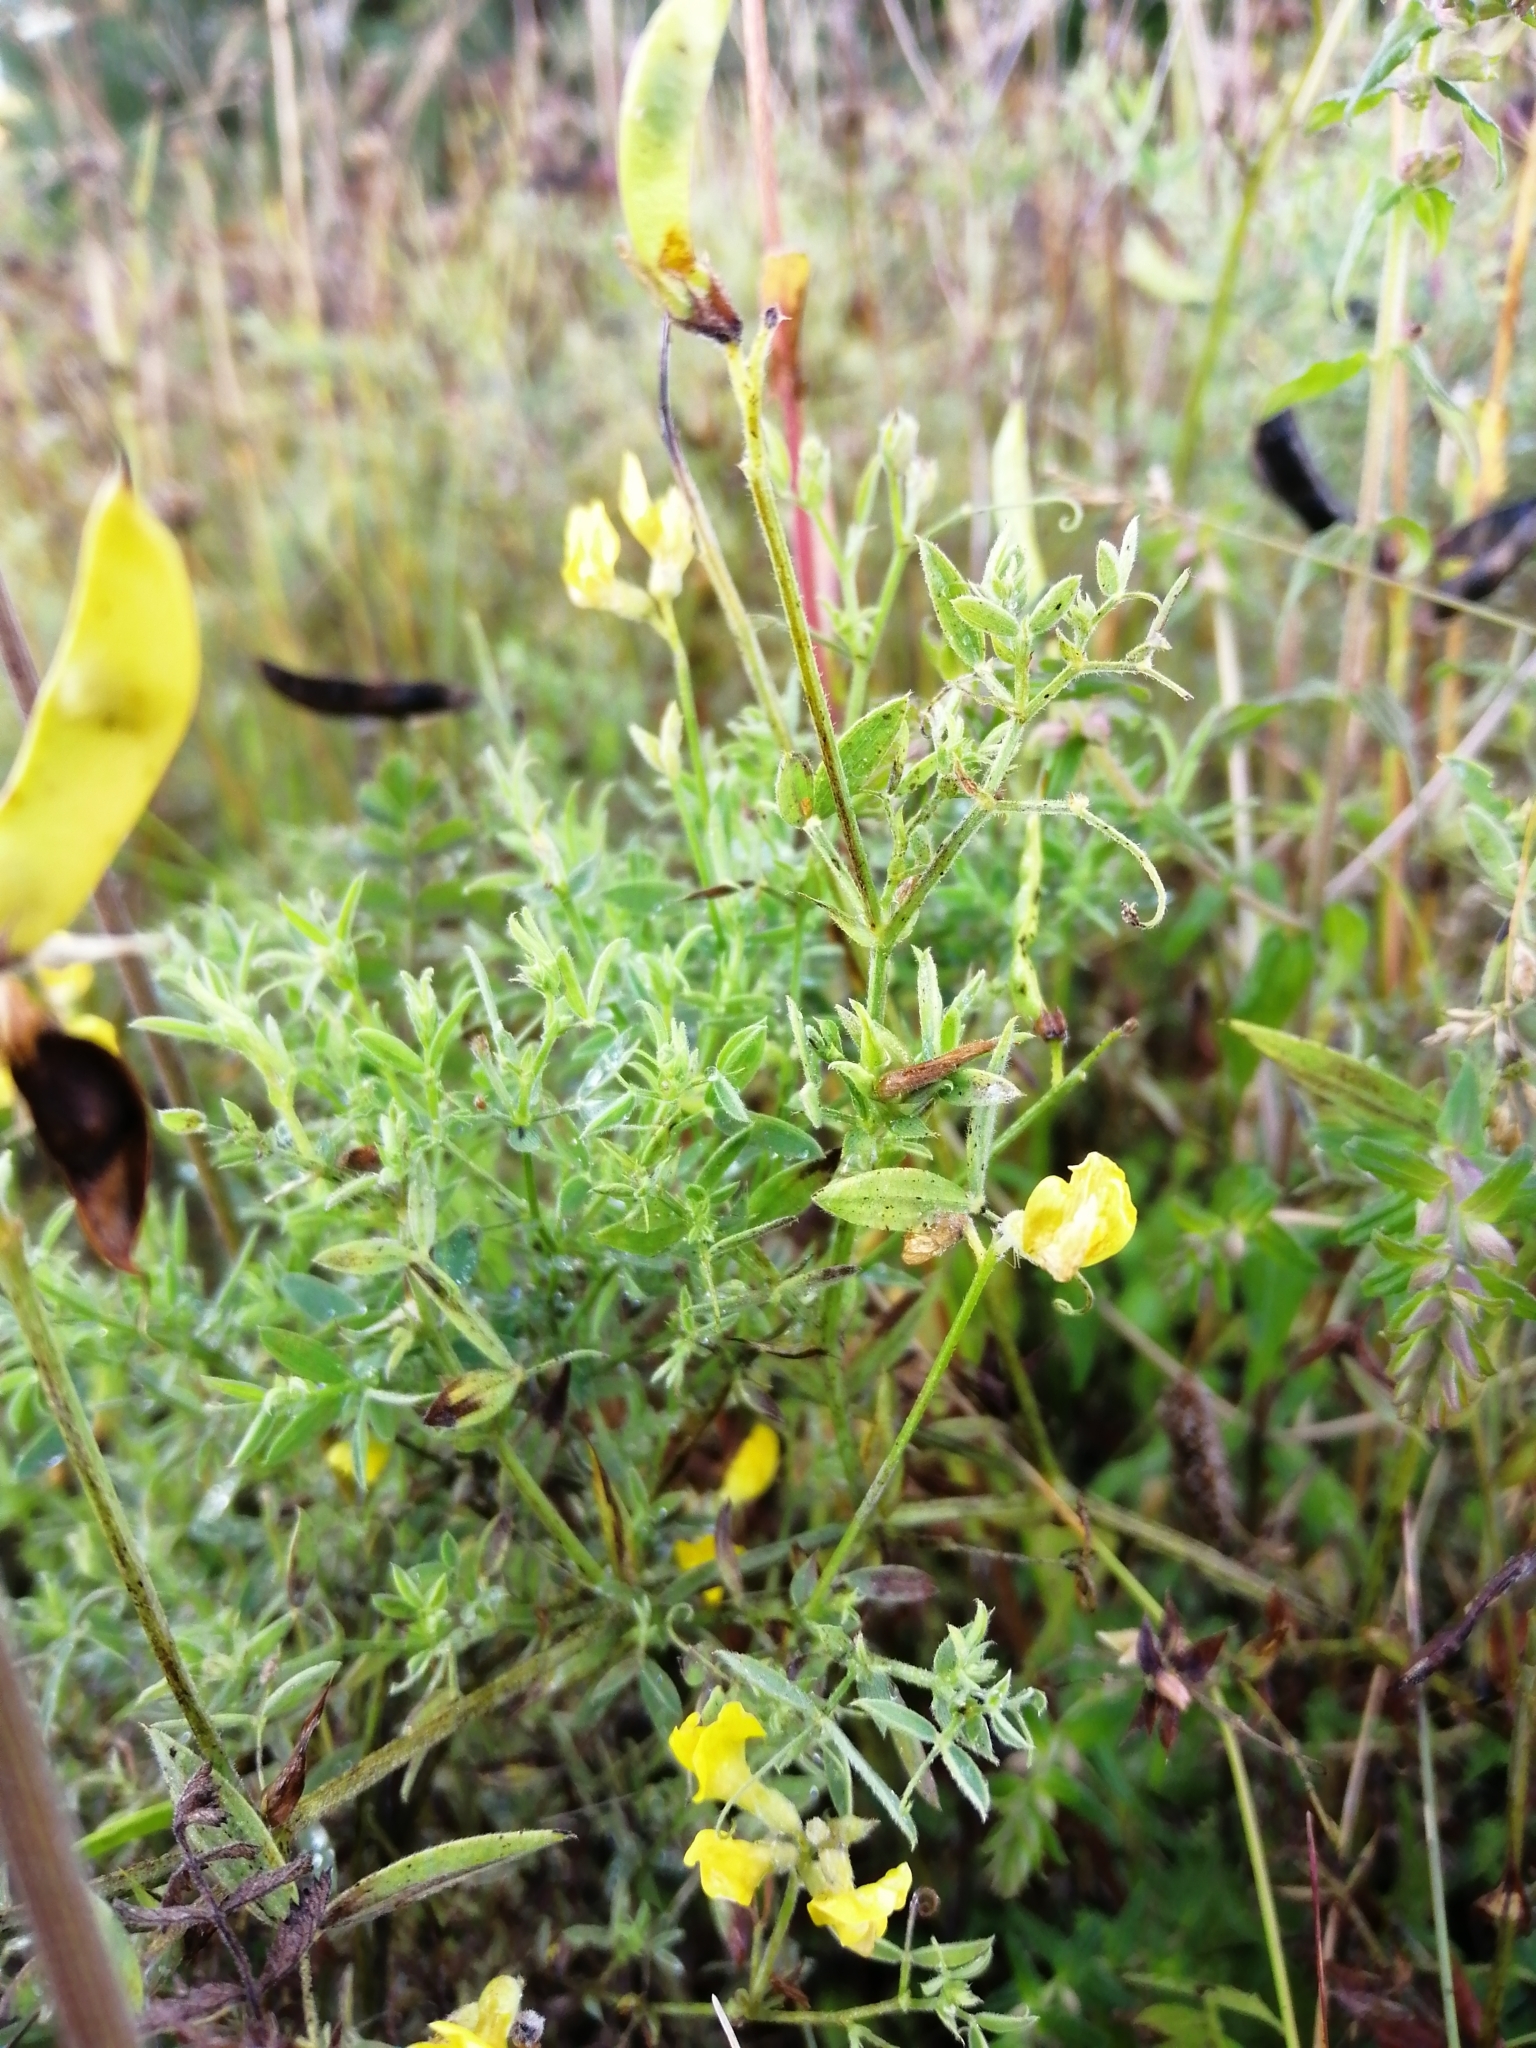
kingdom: Plantae
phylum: Tracheophyta
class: Magnoliopsida
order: Fabales
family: Fabaceae
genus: Lathyrus
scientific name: Lathyrus pratensis
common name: Meadow vetchling
